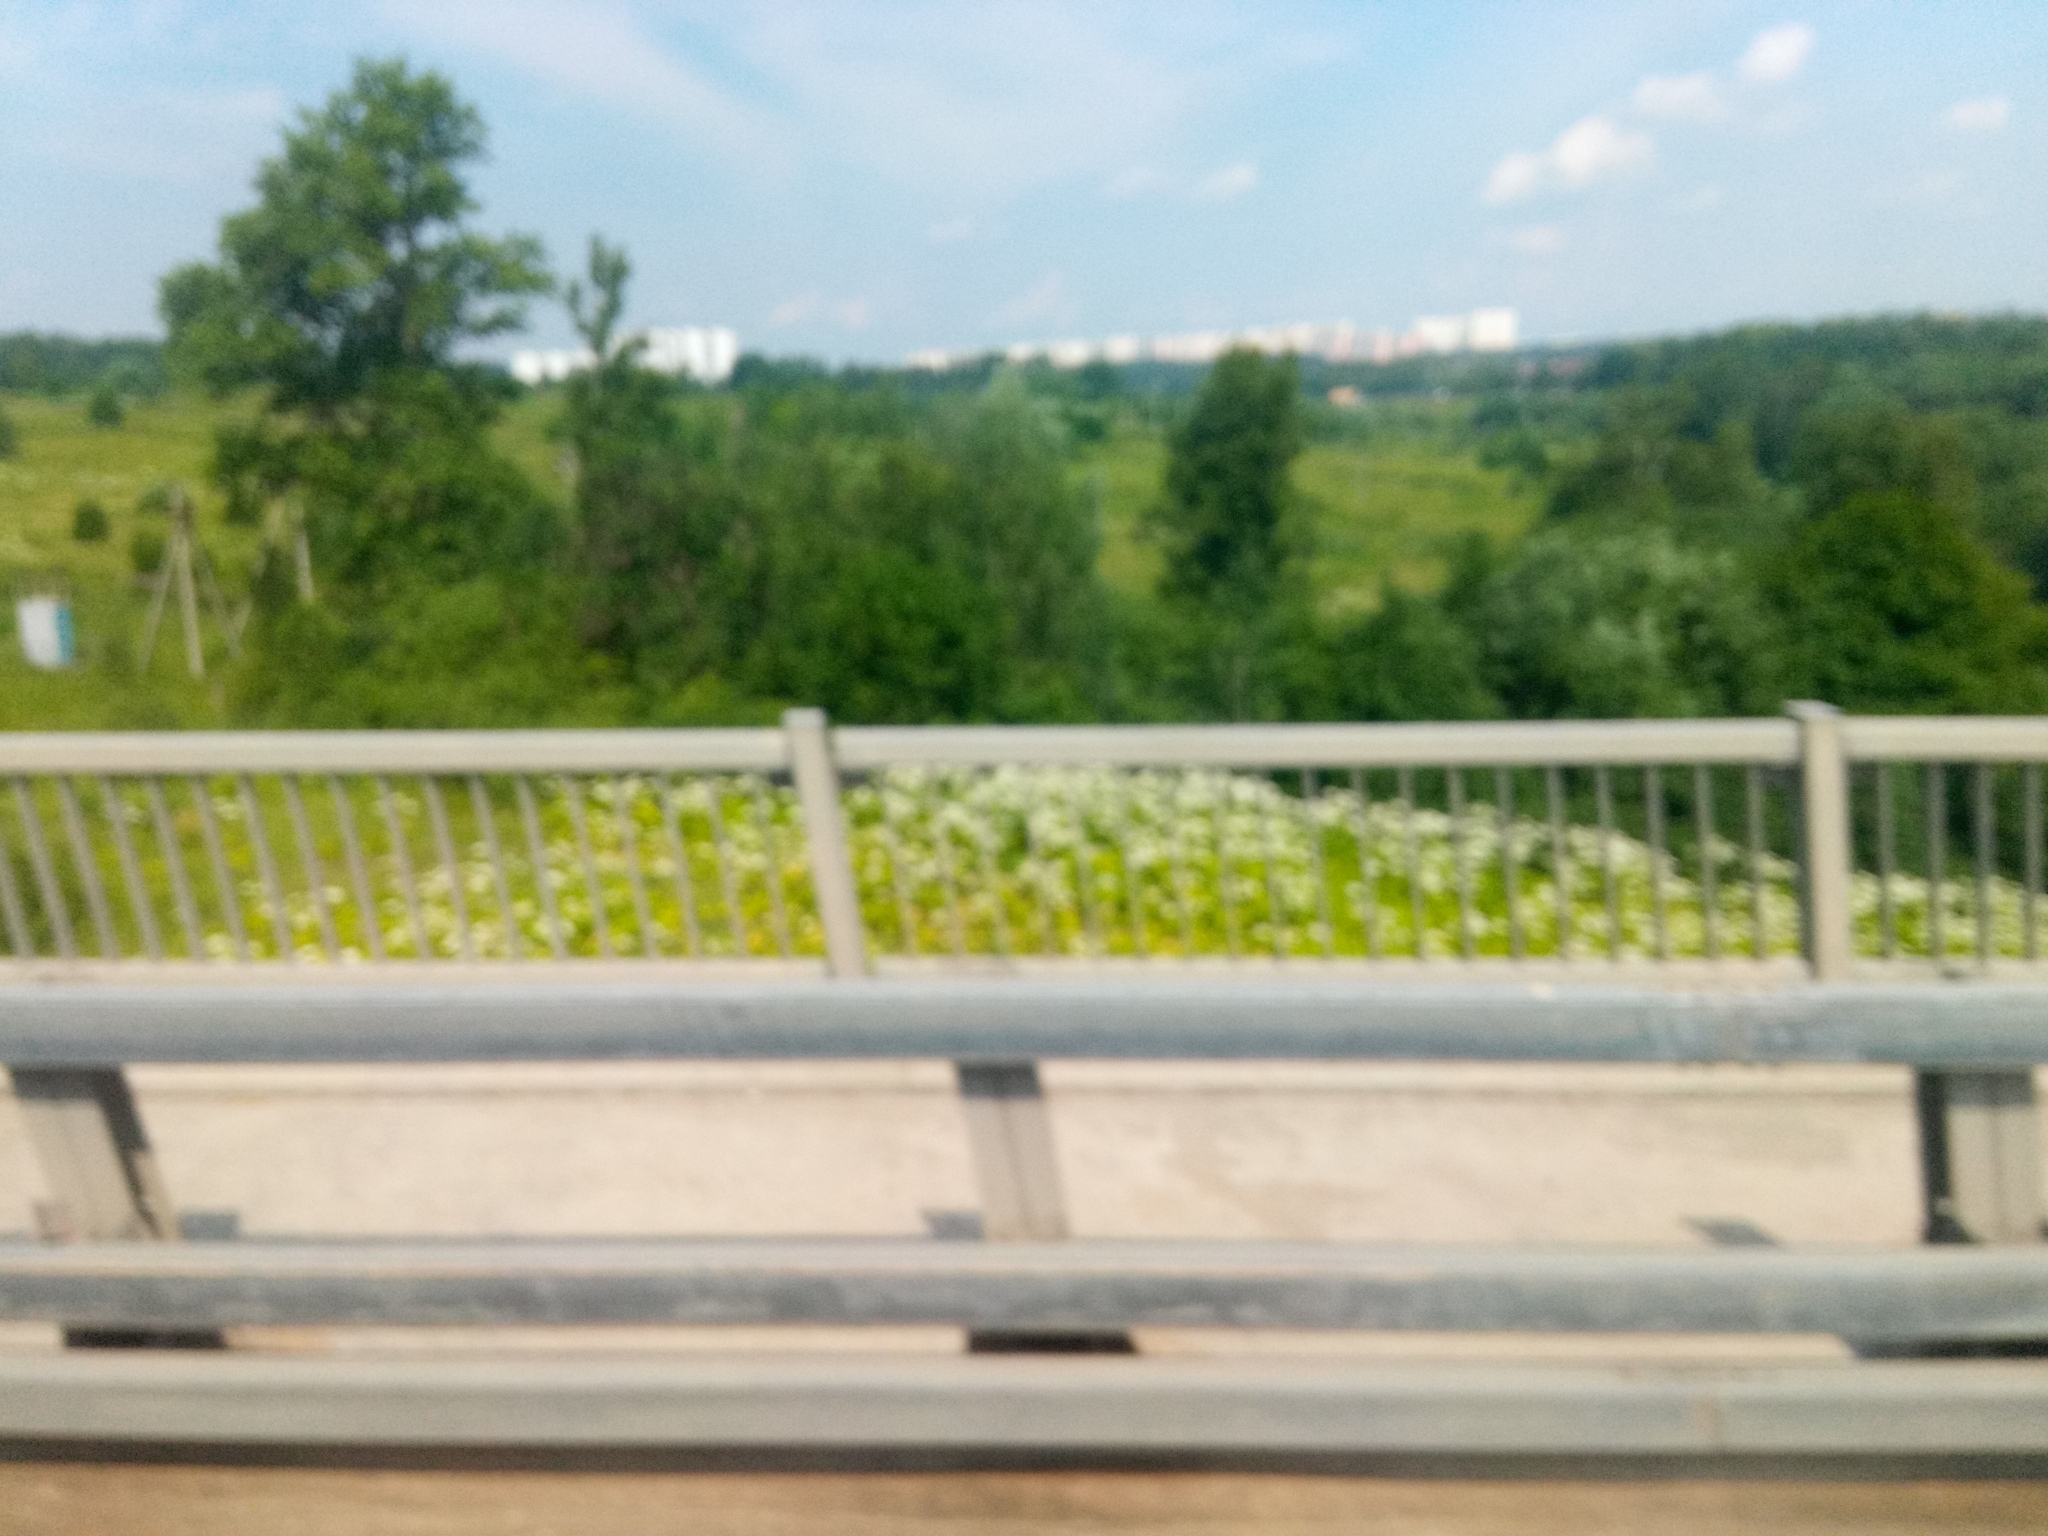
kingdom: Plantae
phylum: Tracheophyta
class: Magnoliopsida
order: Apiales
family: Apiaceae
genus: Heracleum
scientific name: Heracleum sosnowskyi
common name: Sosnowsky's hogweed
